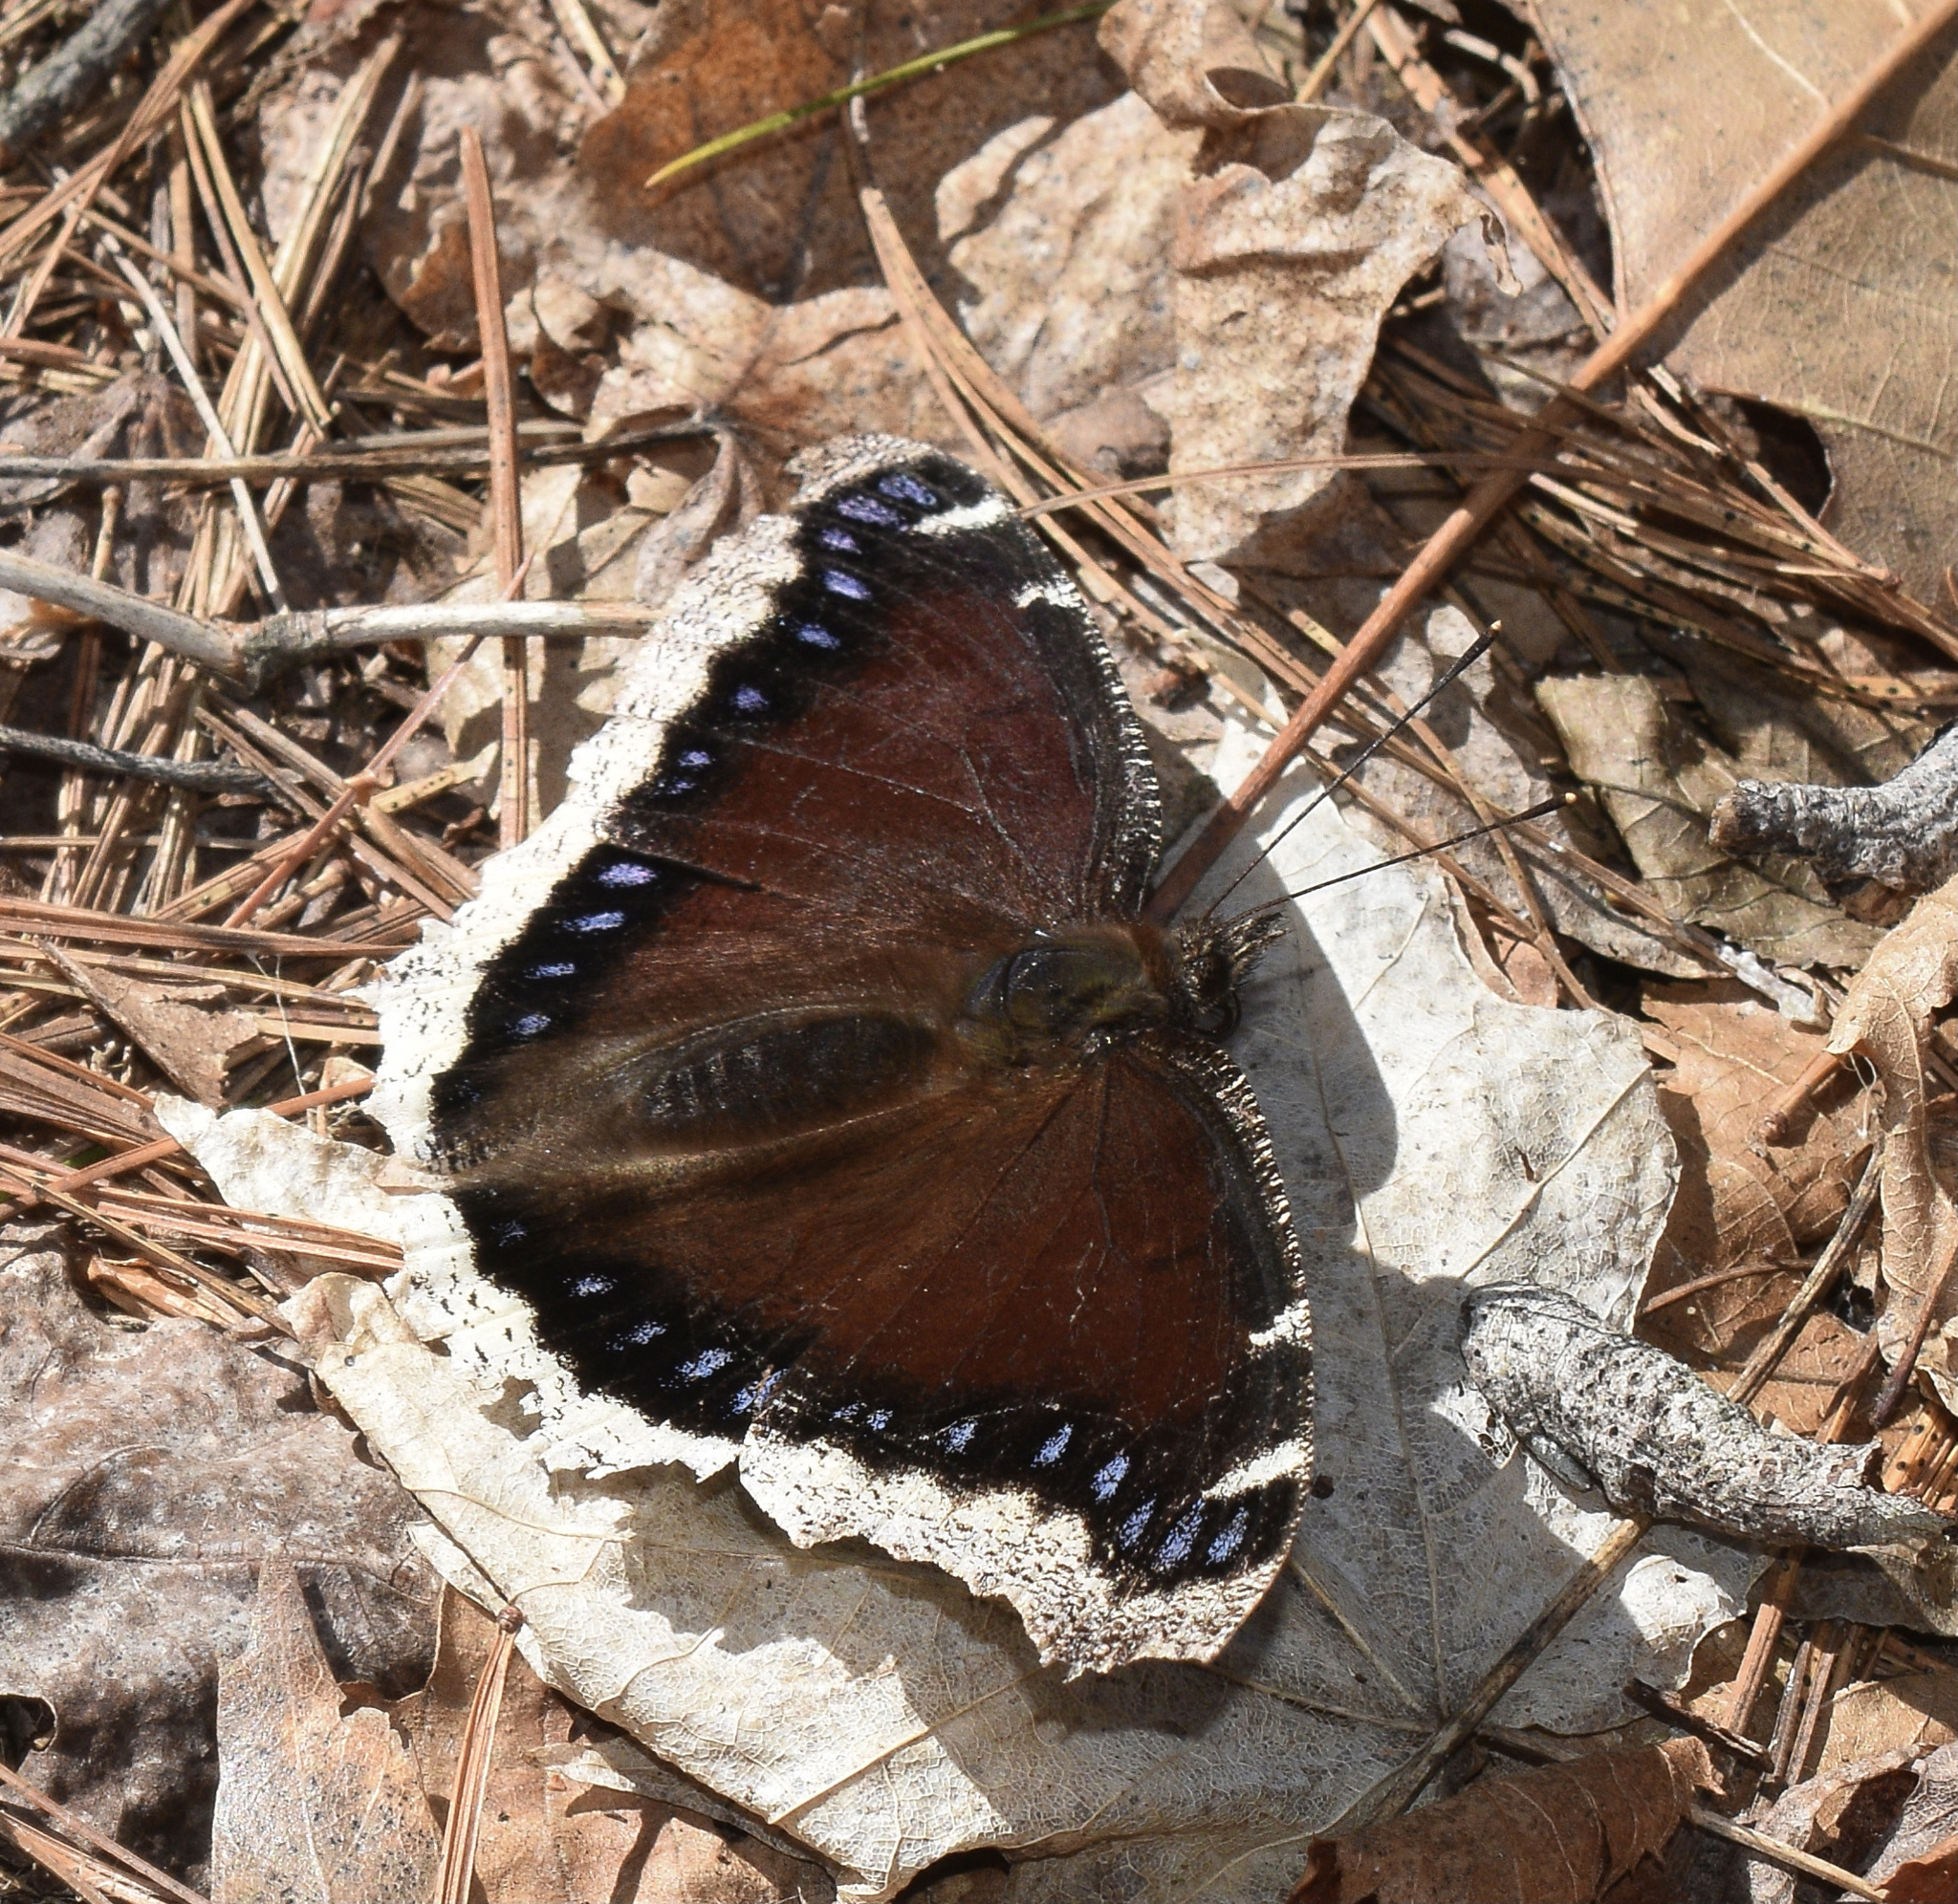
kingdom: Animalia
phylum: Arthropoda
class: Insecta
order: Lepidoptera
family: Nymphalidae
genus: Nymphalis
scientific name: Nymphalis antiopa
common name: Camberwell beauty
